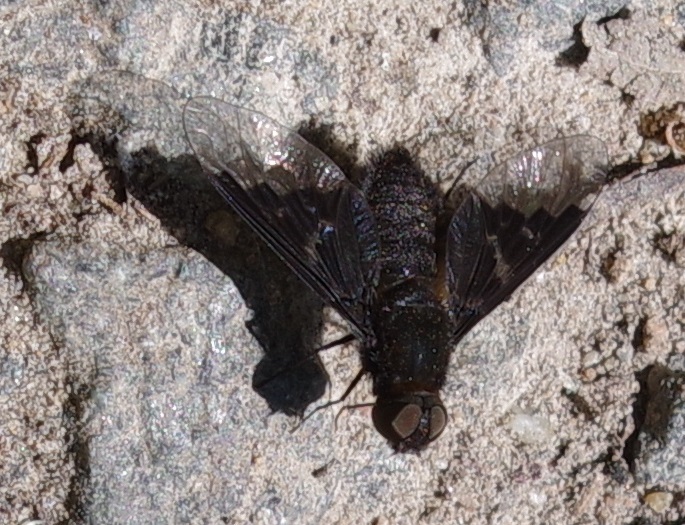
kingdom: Animalia
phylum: Arthropoda
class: Insecta
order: Diptera
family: Bombyliidae
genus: Hemipenthes
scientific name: Hemipenthes morio
